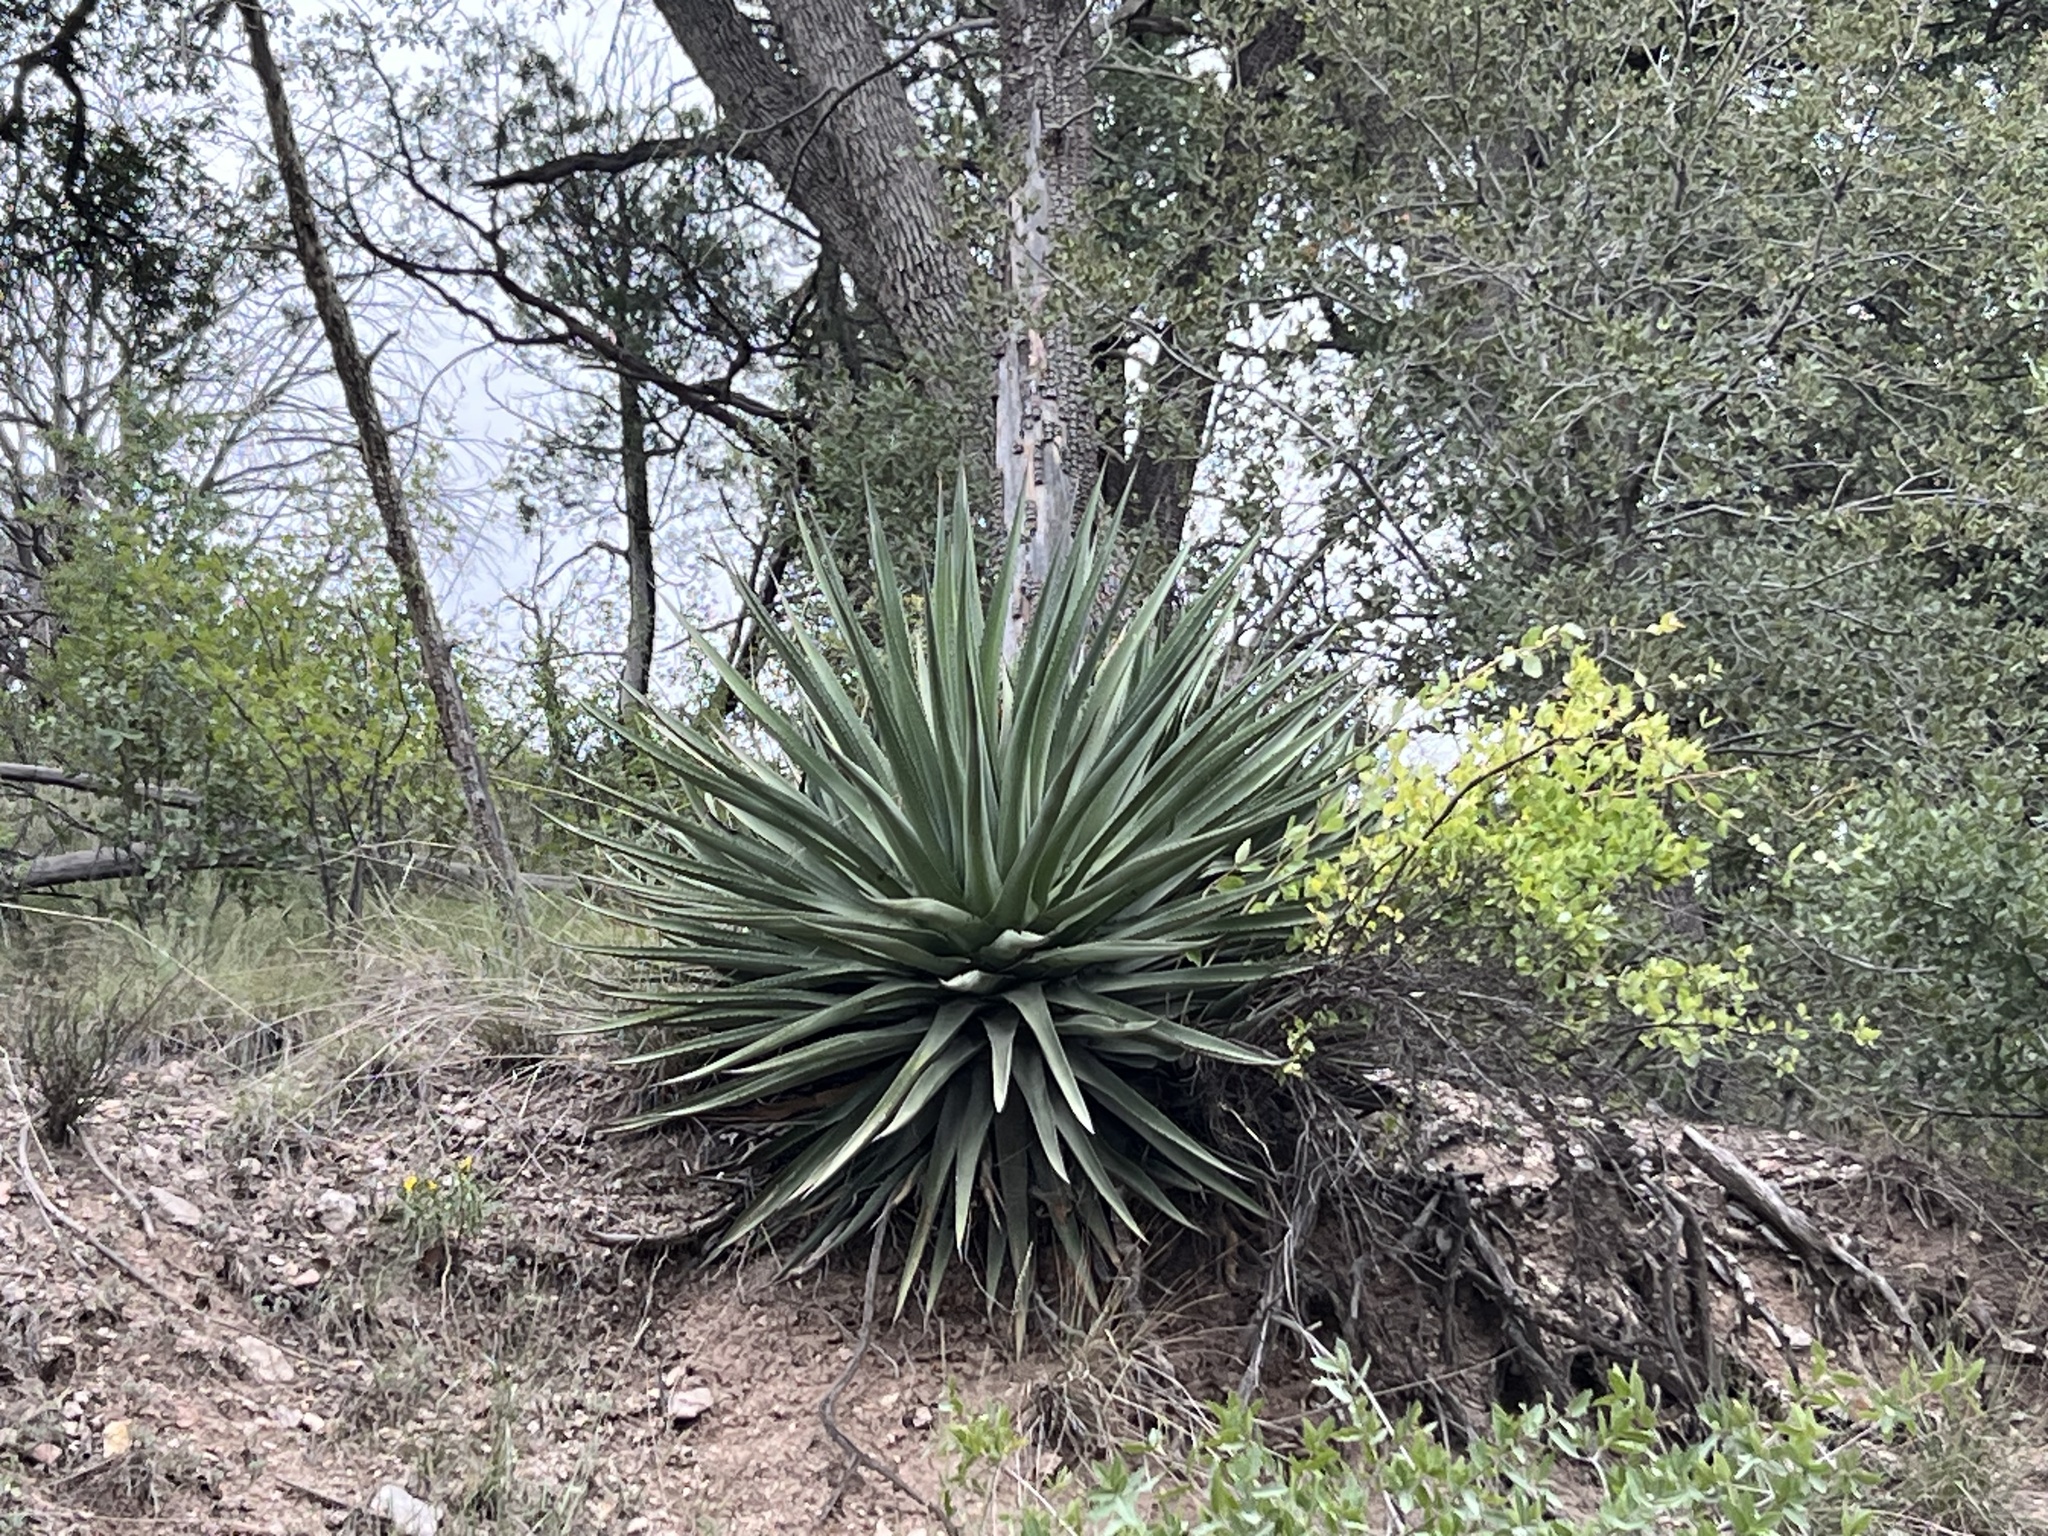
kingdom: Plantae
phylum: Tracheophyta
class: Liliopsida
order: Asparagales
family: Asparagaceae
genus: Agave
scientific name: Agave palmeri
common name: Palmer agave
